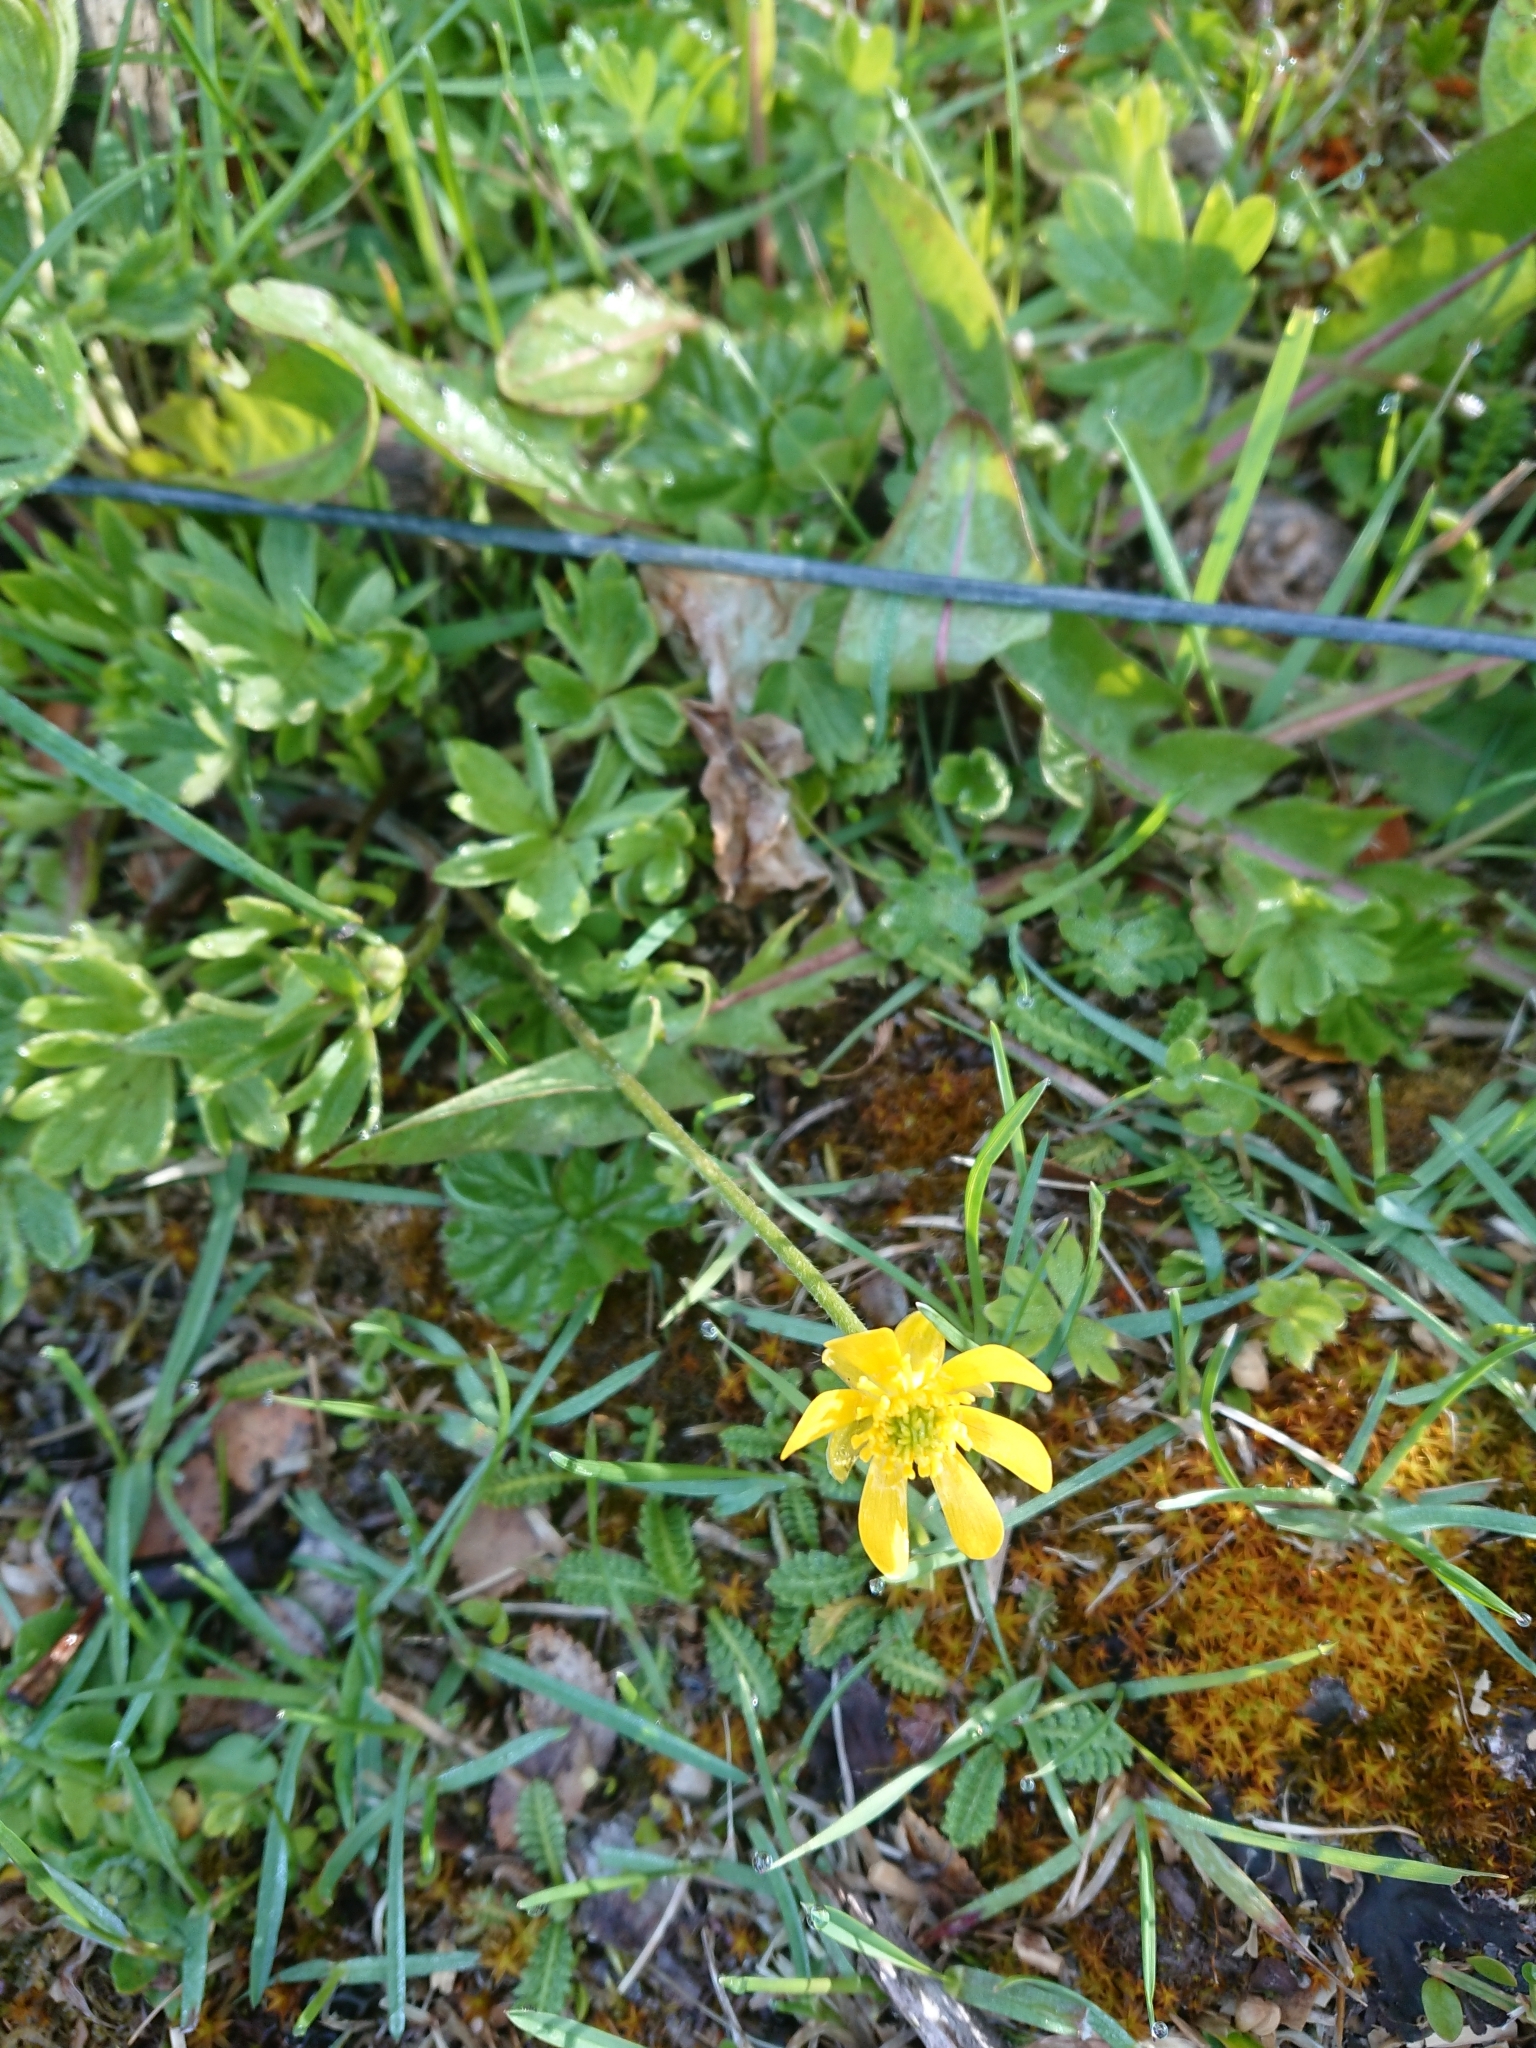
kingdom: Plantae
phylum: Tracheophyta
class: Magnoliopsida
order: Ranunculales
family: Ranunculaceae
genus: Ranunculus
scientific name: Ranunculus peduncularis
